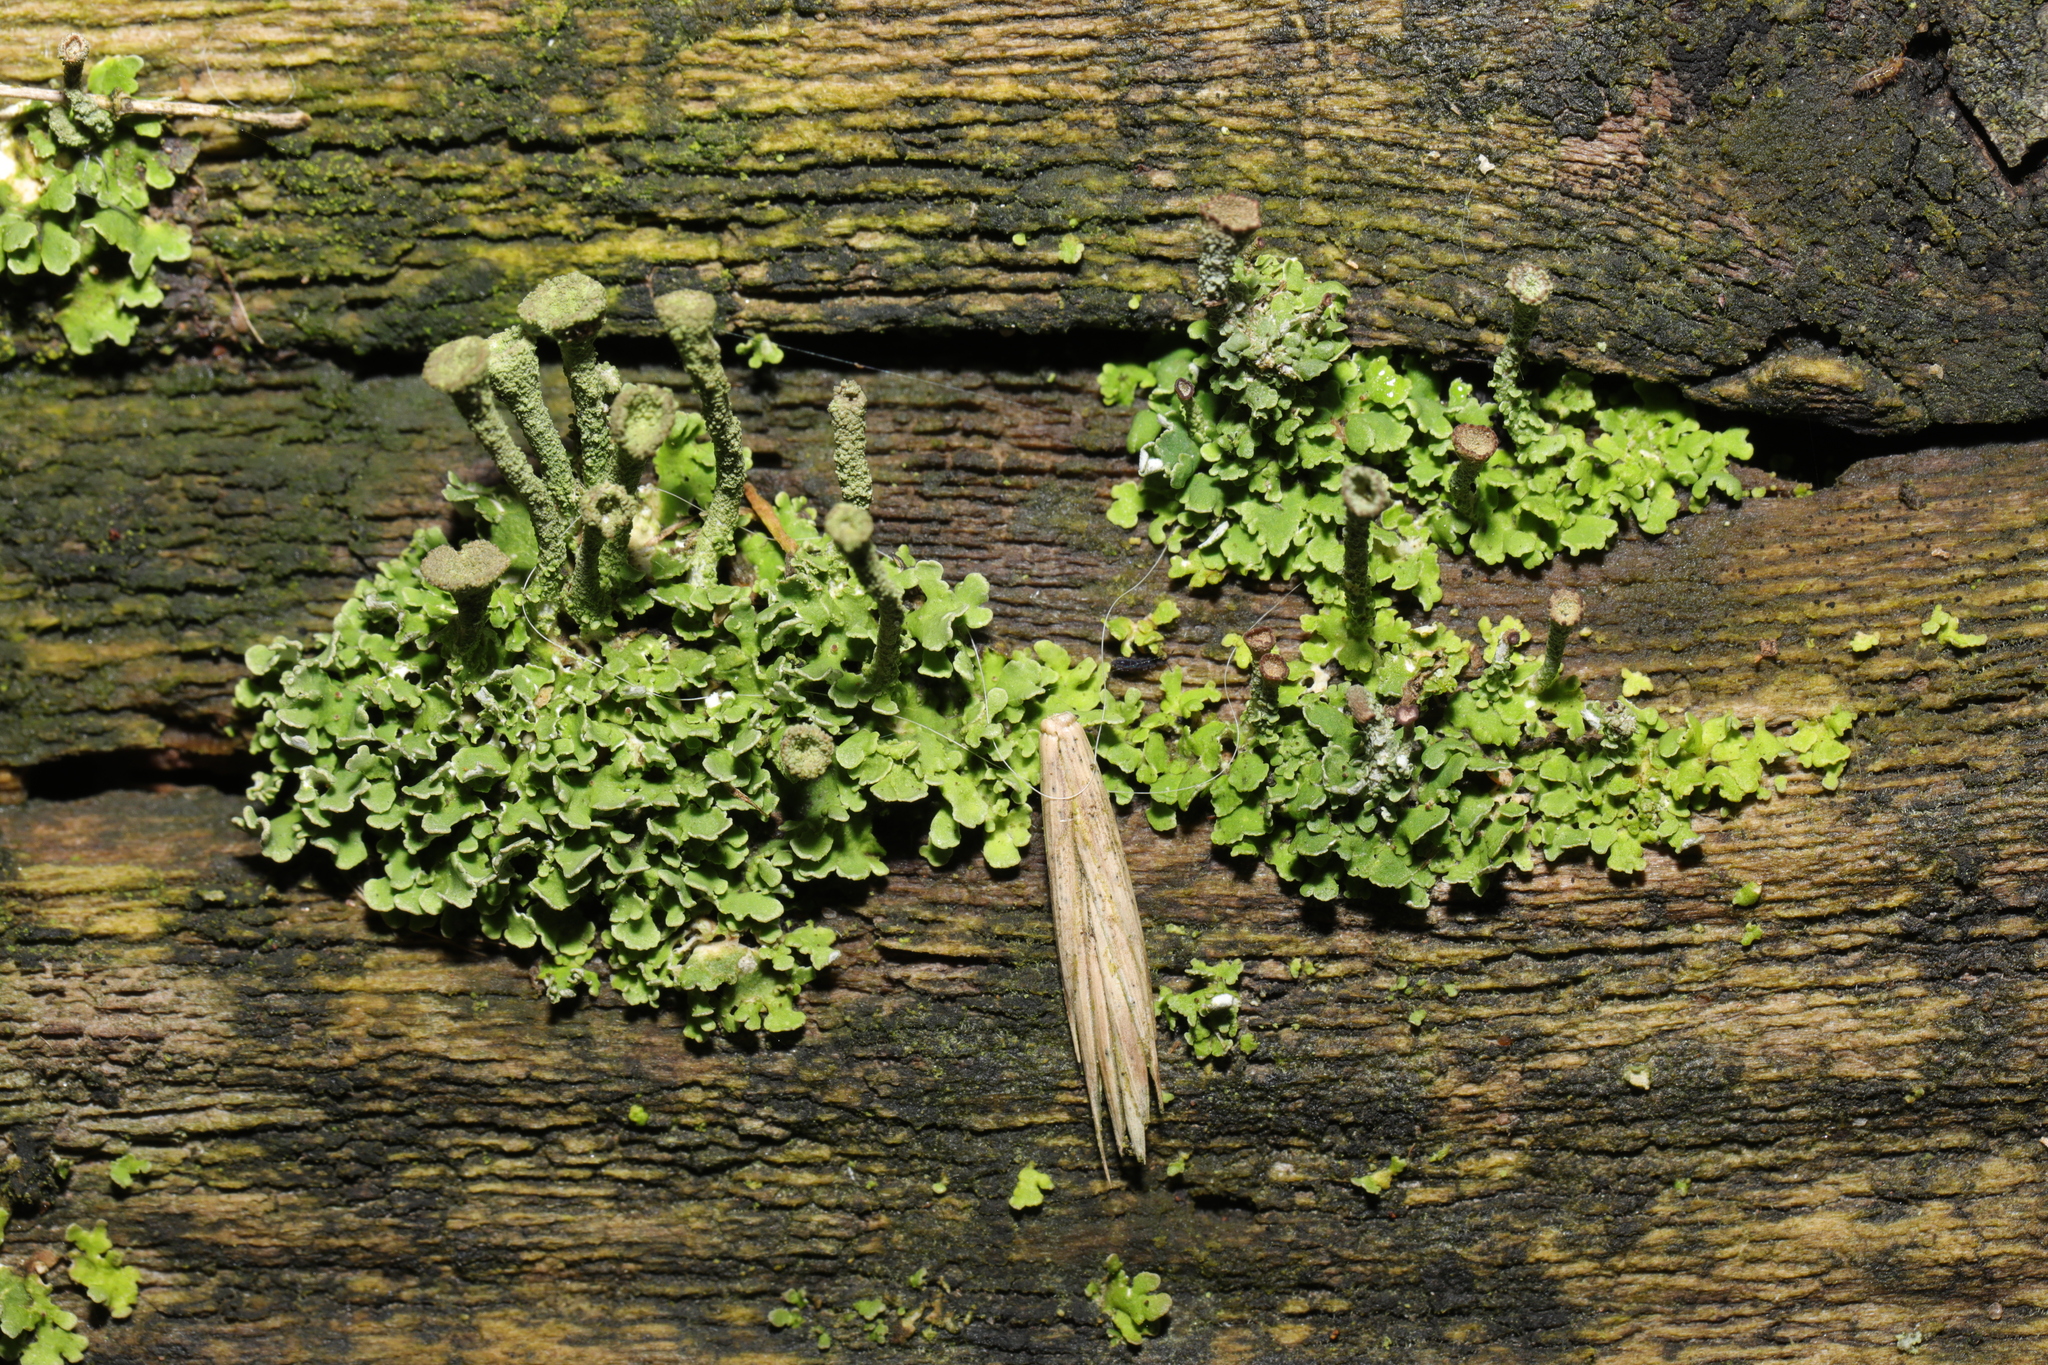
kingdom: Fungi
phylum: Ascomycota
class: Lecanoromycetes
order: Lecanorales
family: Cladoniaceae
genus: Cladonia
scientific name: Cladonia
